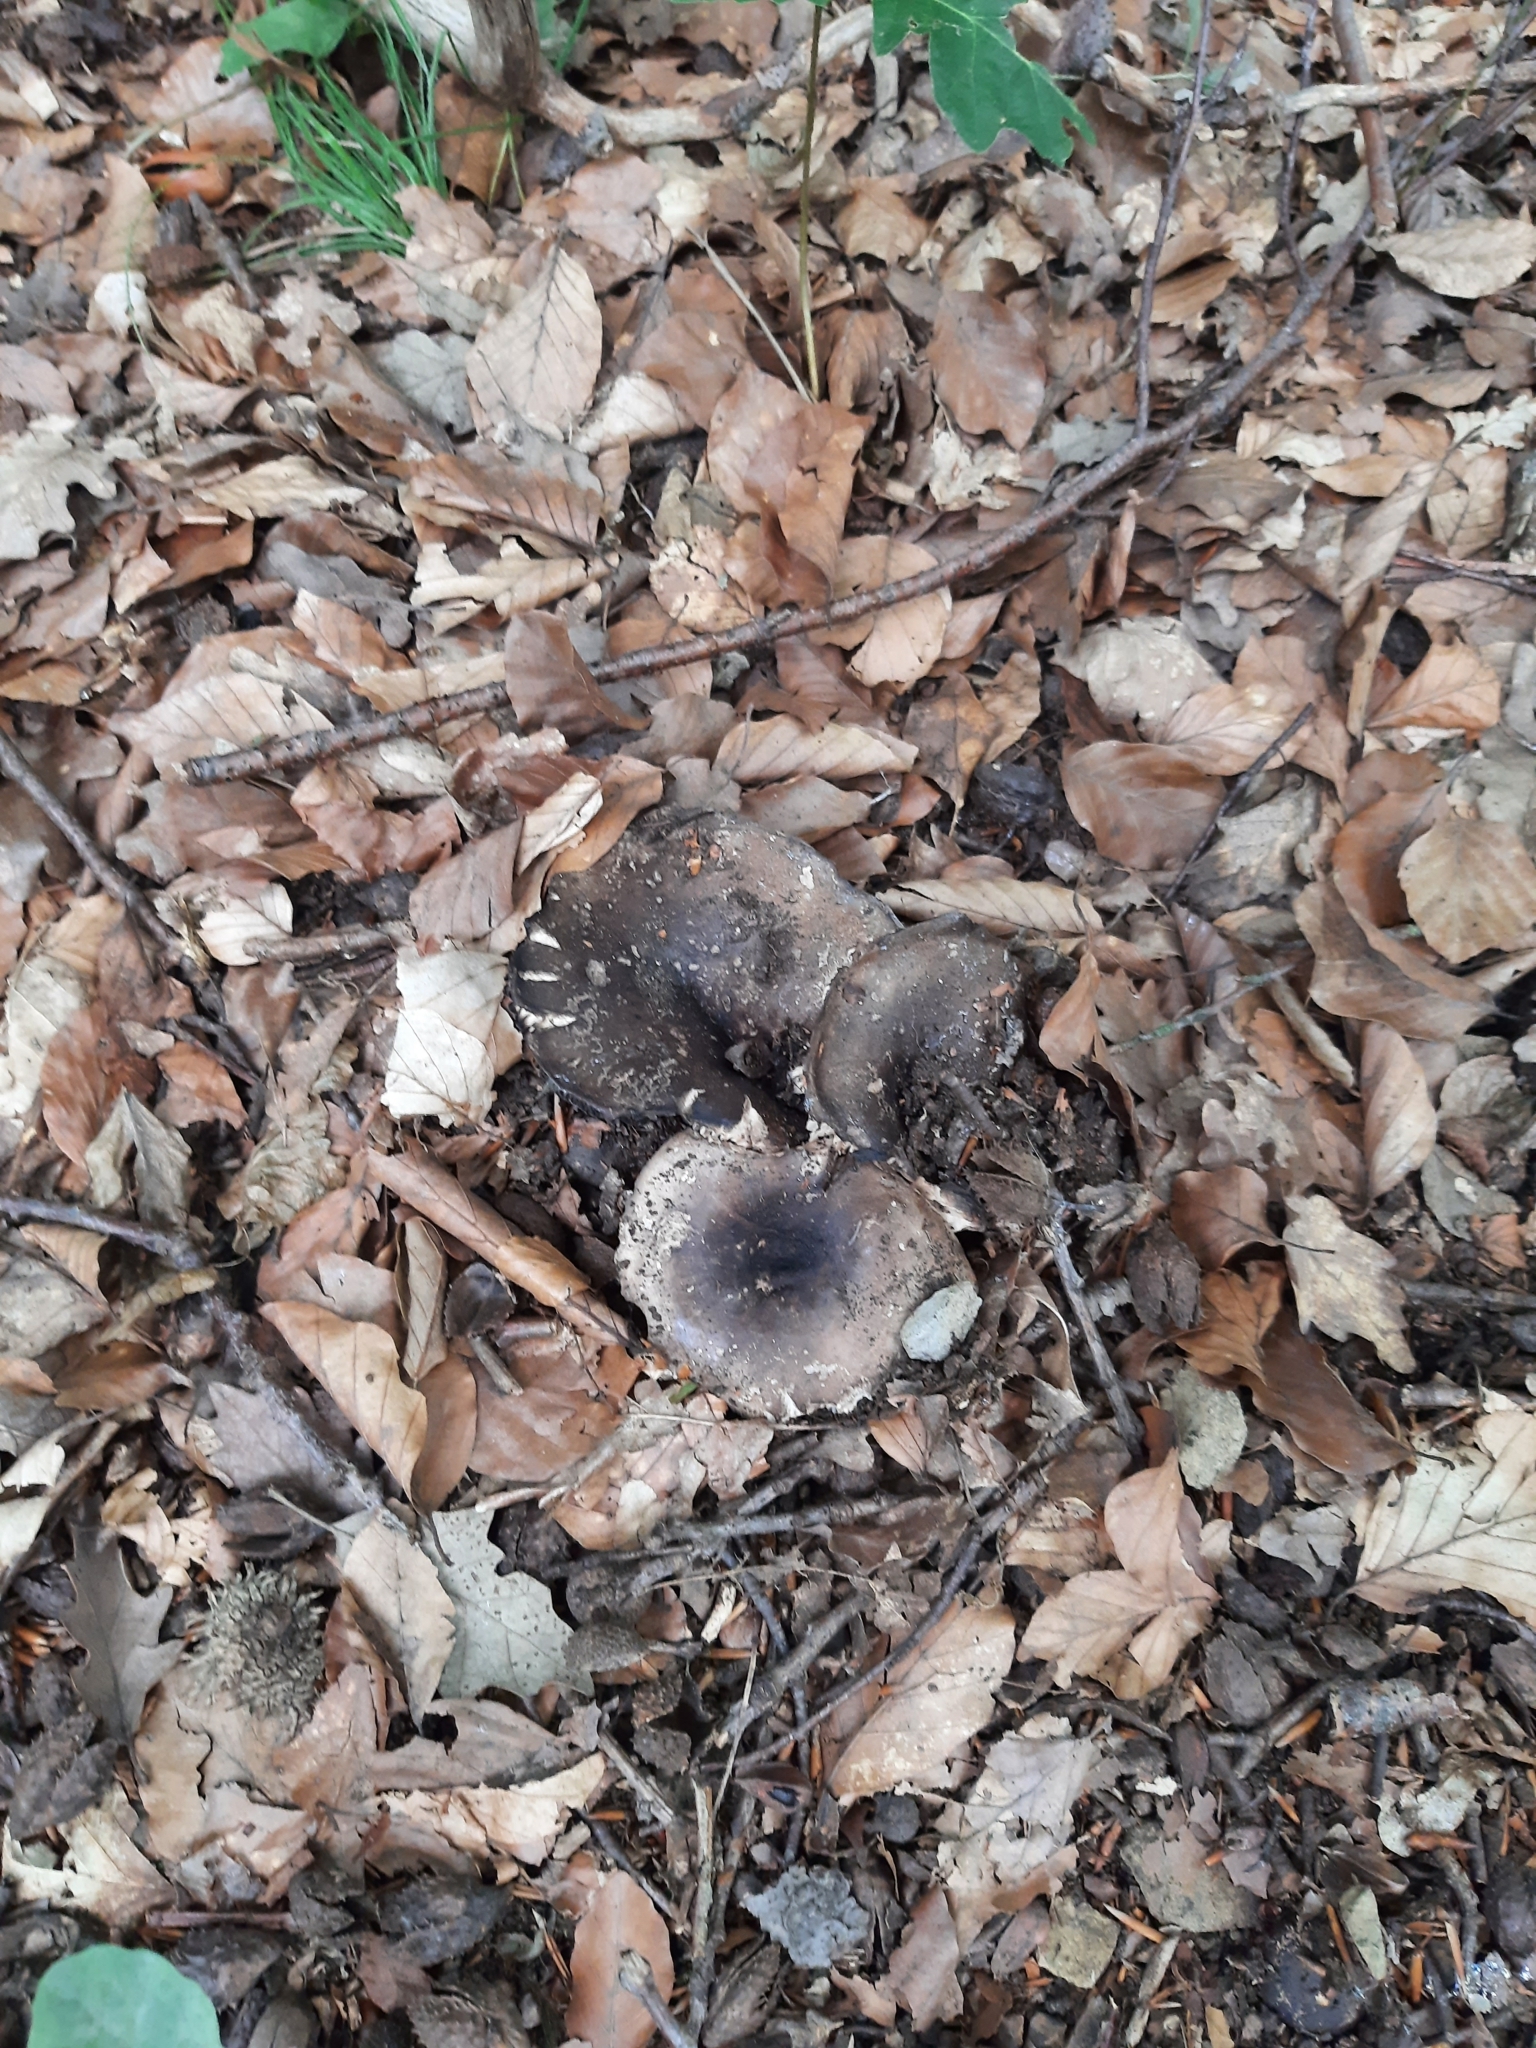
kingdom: Fungi
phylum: Basidiomycota
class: Agaricomycetes
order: Russulales
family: Russulaceae
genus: Russula
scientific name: Russula
